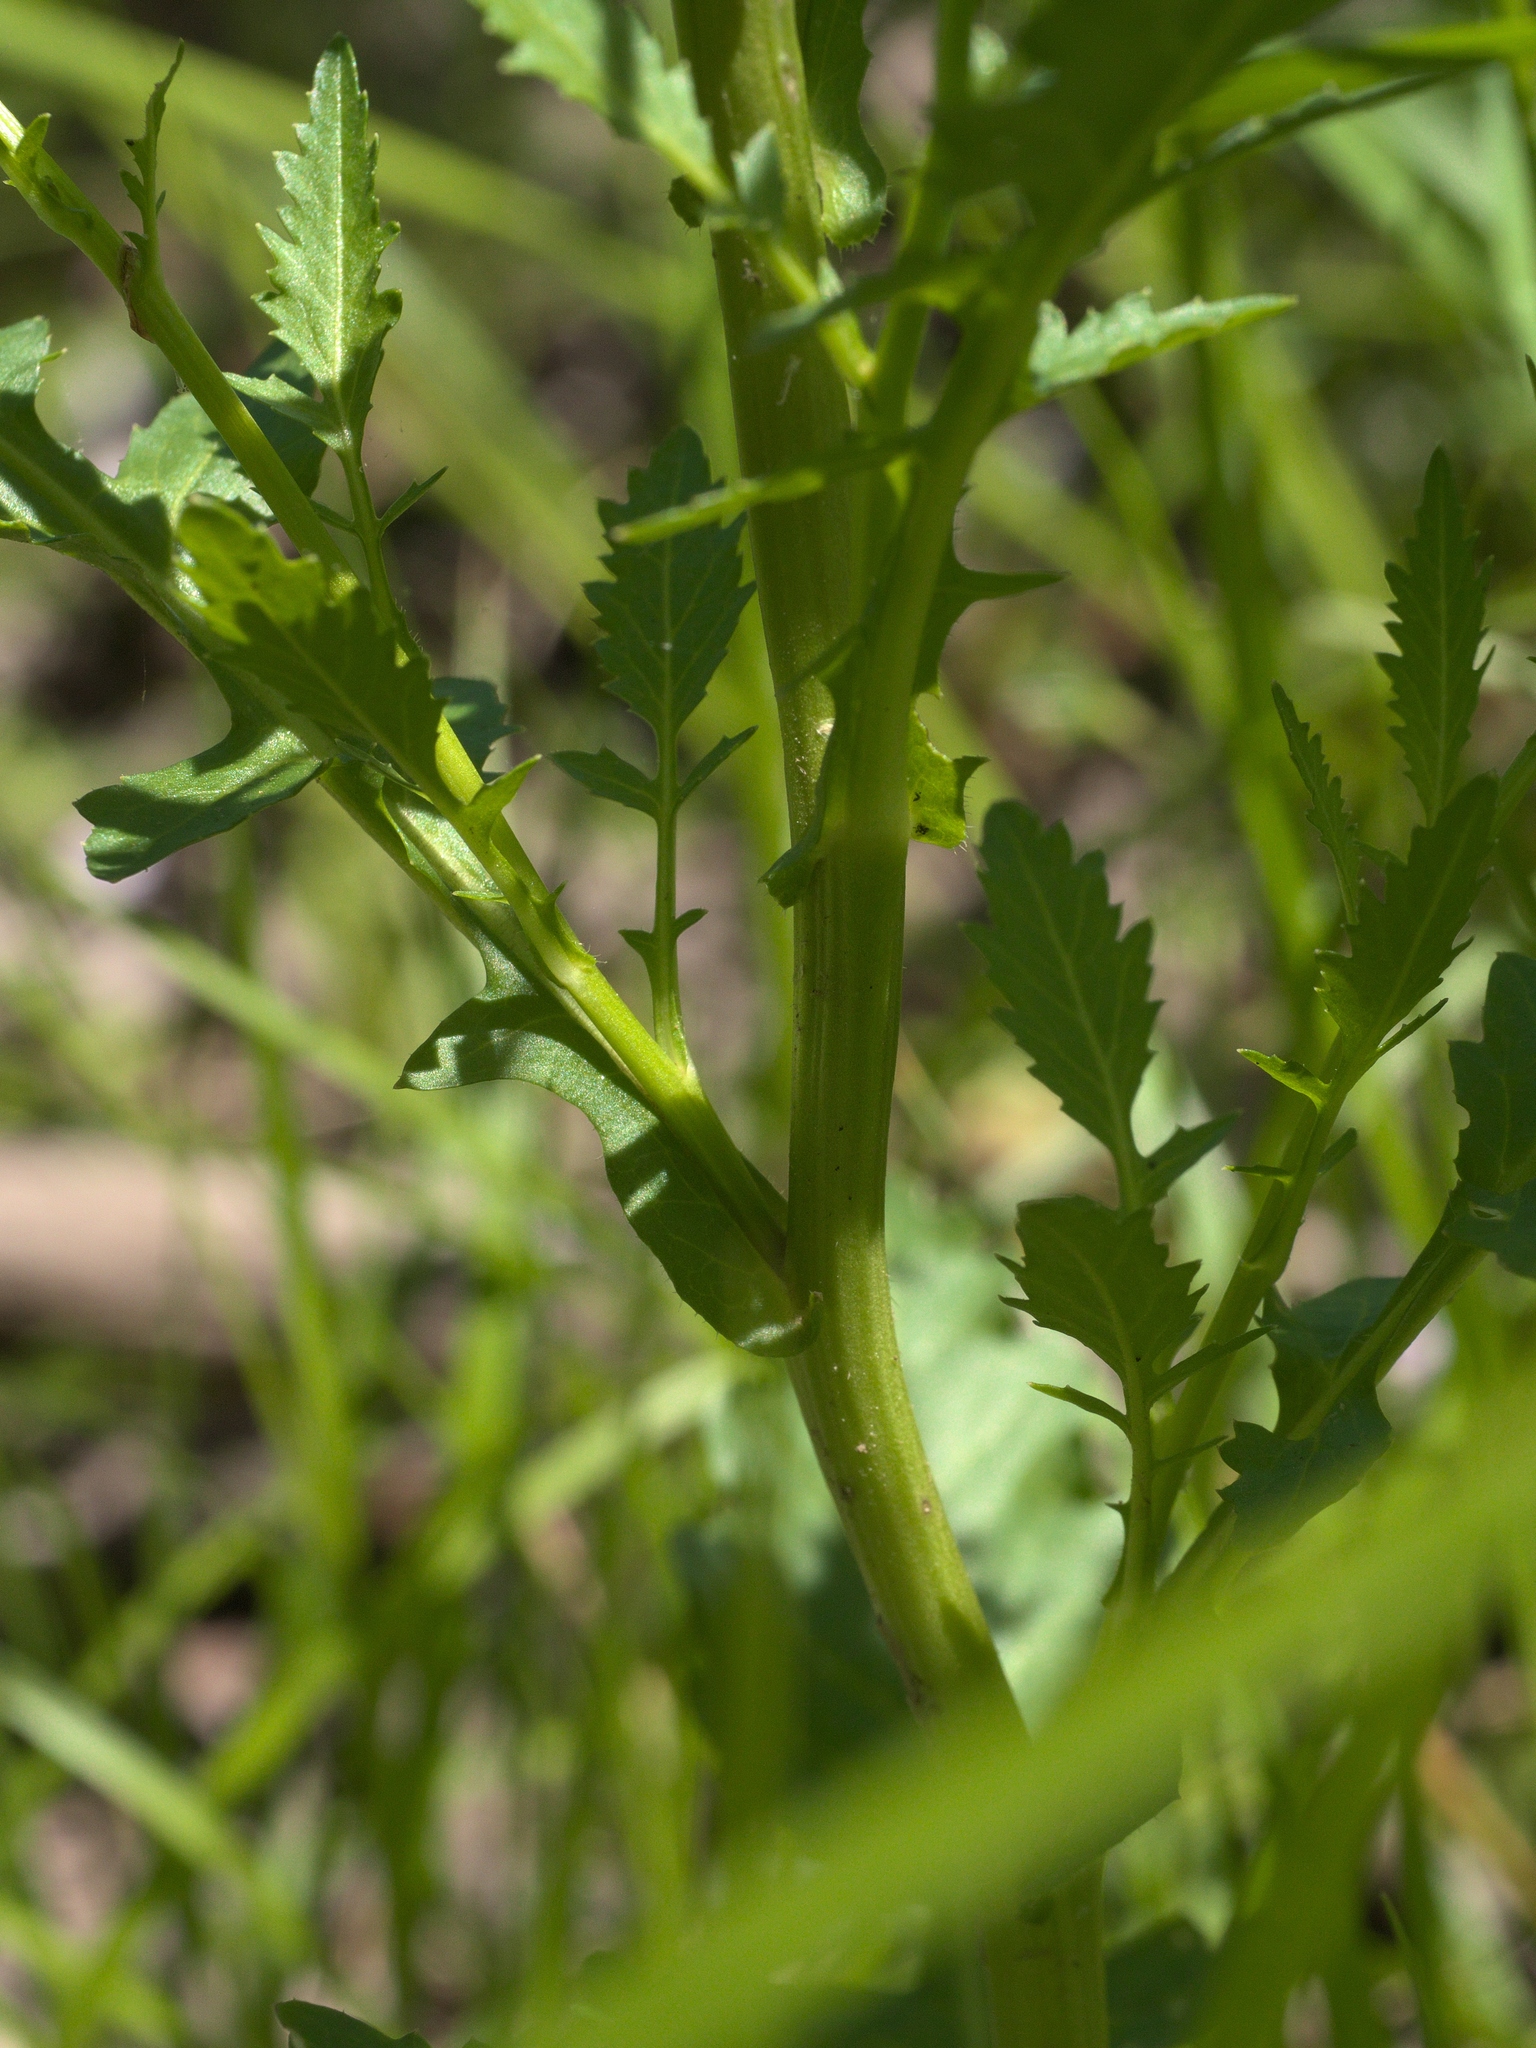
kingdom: Plantae
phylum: Tracheophyta
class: Magnoliopsida
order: Brassicales
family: Brassicaceae
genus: Rorippa
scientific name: Rorippa palustris
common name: Marsh yellow-cress
